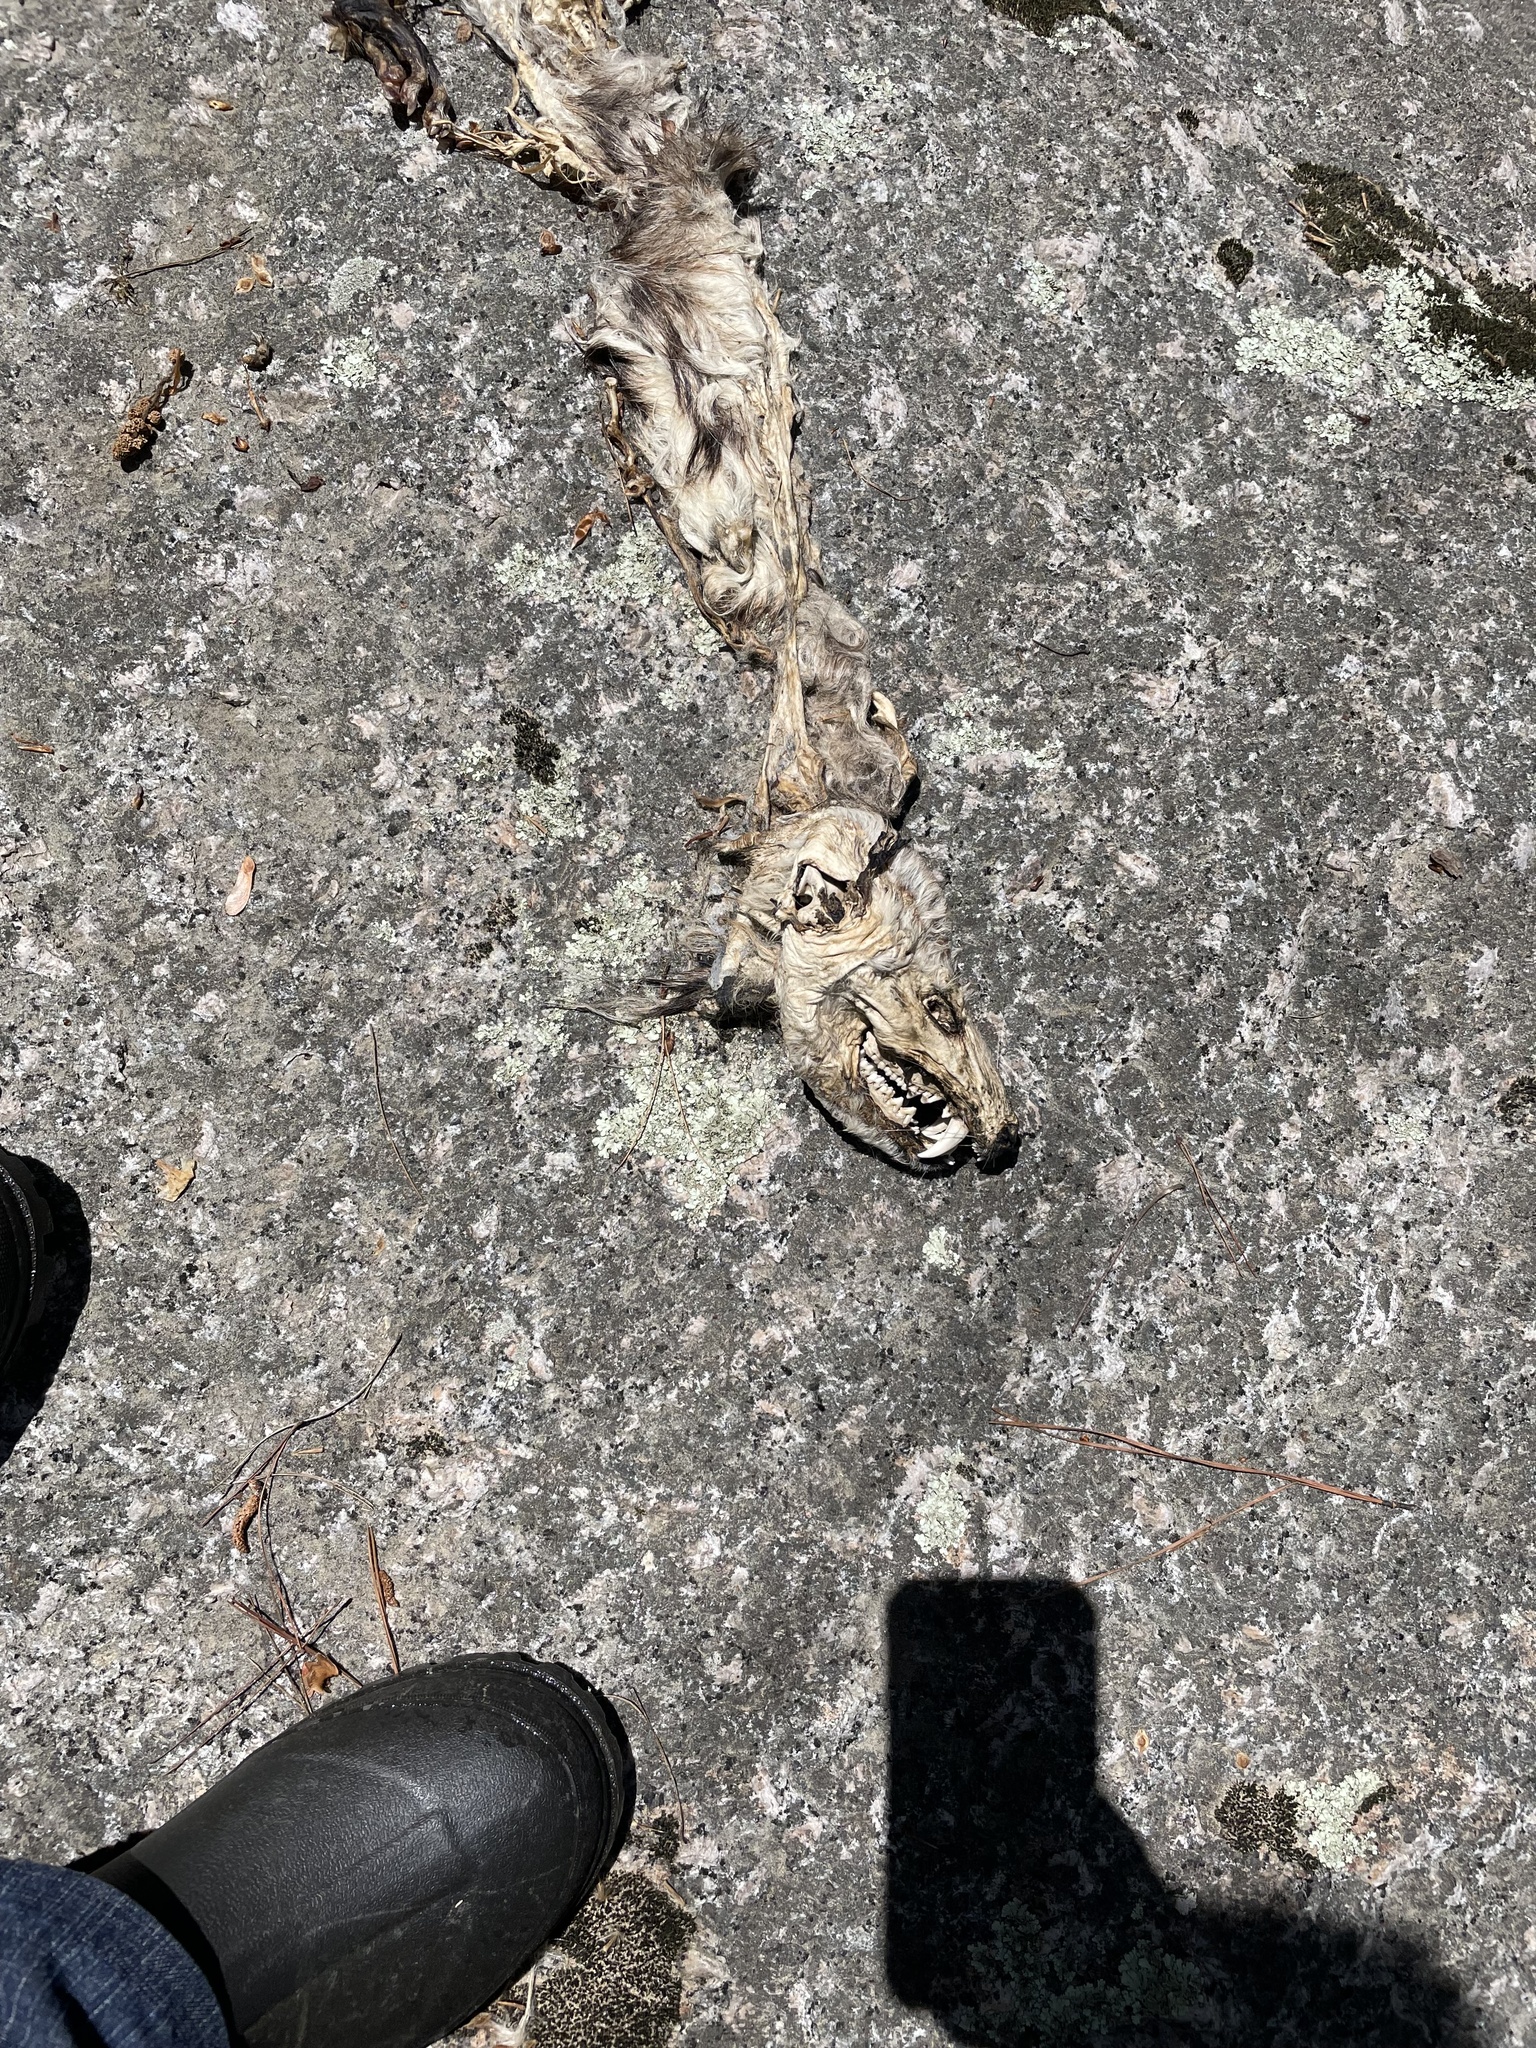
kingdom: Animalia
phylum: Chordata
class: Mammalia
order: Didelphimorphia
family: Didelphidae
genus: Didelphis
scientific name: Didelphis virginiana
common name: Virginia opossum
